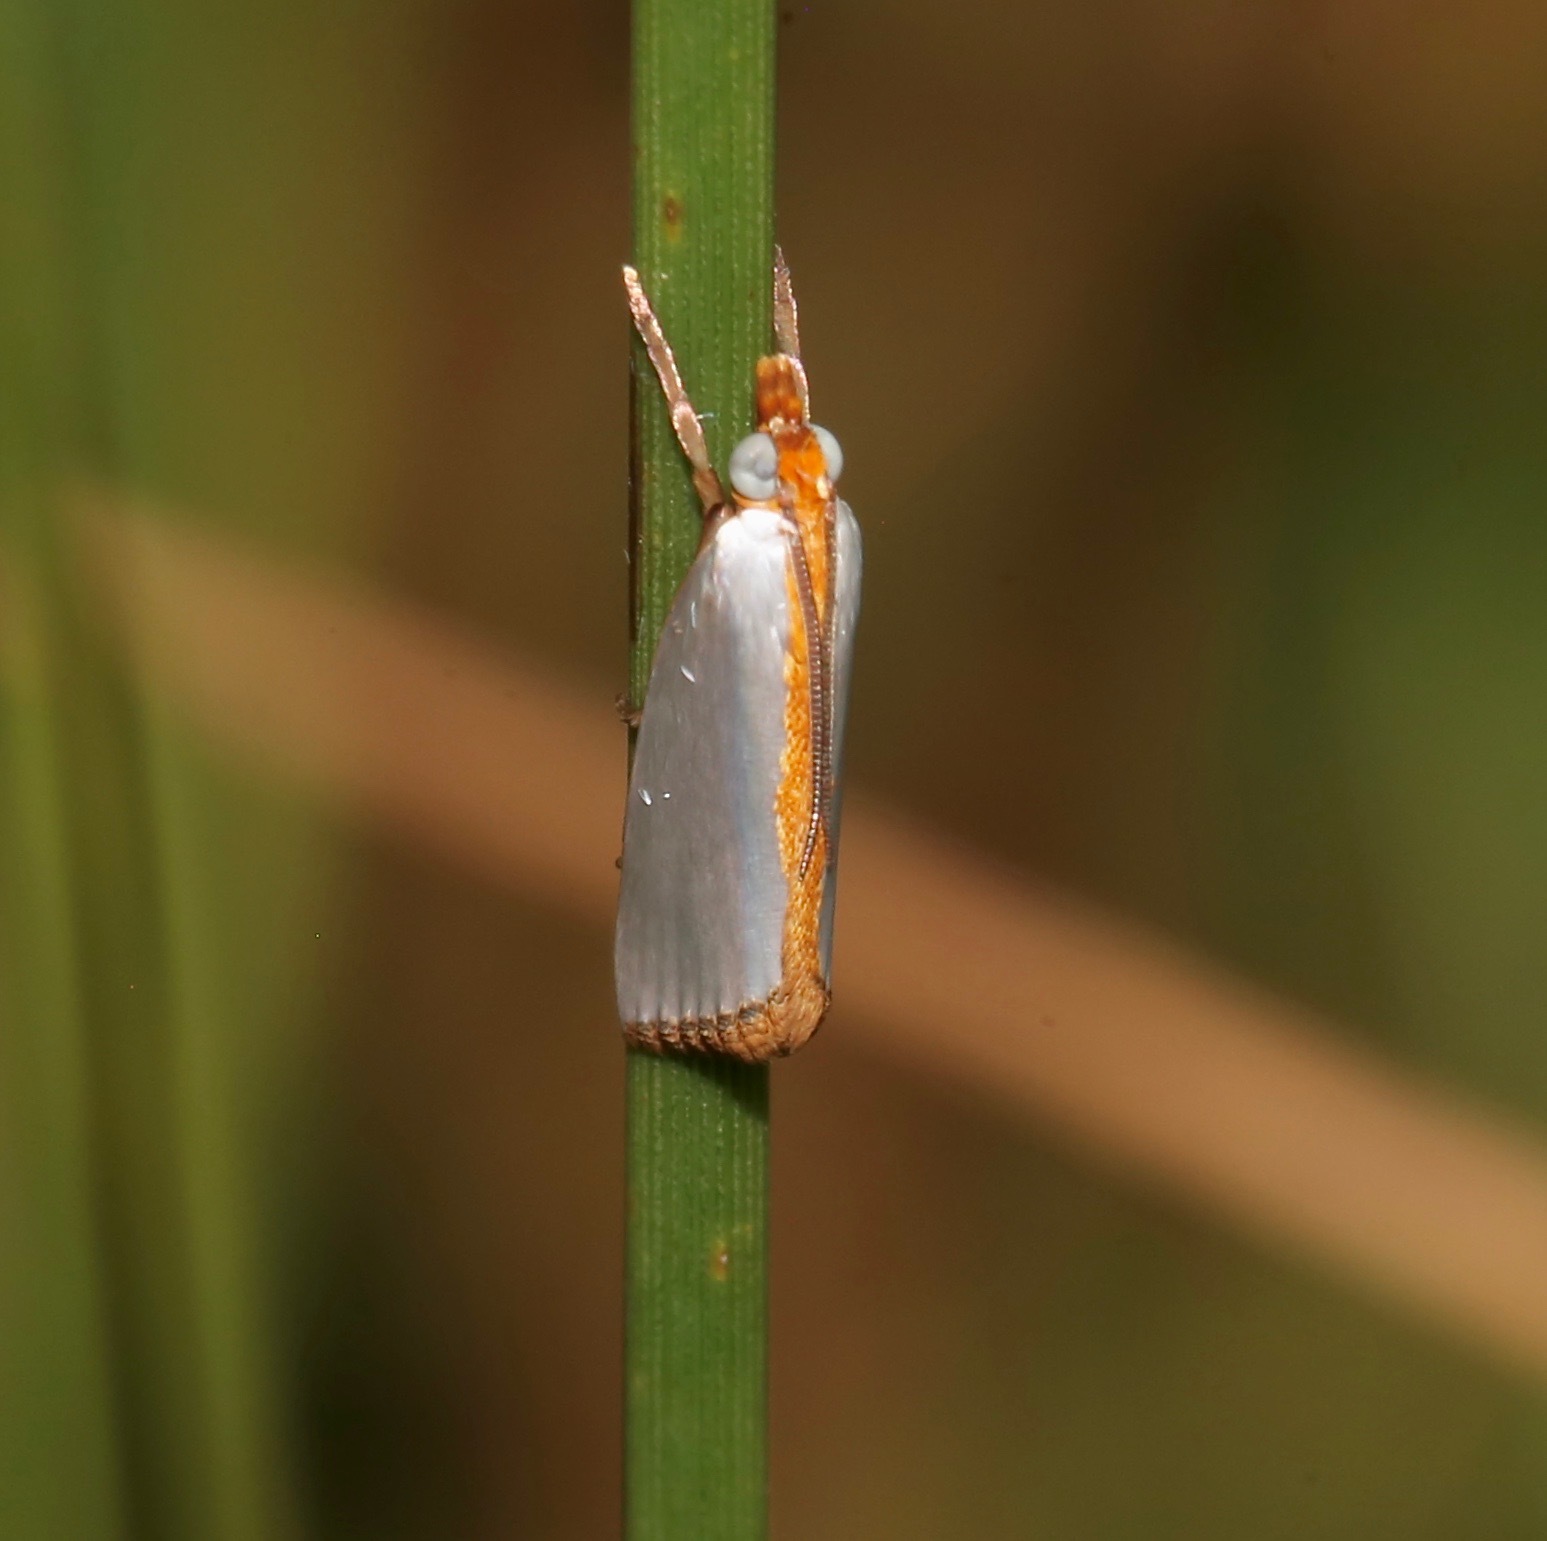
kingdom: Animalia
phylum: Arthropoda
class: Insecta
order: Lepidoptera
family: Crambidae
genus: Argyria
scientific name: Argyria
